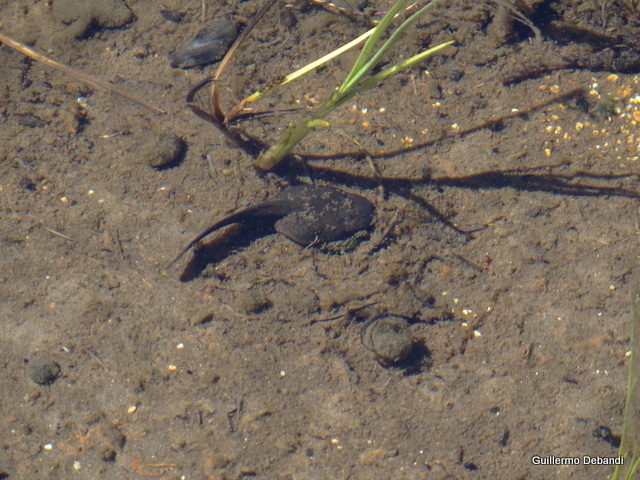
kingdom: Animalia
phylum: Chordata
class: Amphibia
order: Anura
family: Alsodidae
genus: Alsodes
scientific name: Alsodes pehuenche
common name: Pehuenche spiny-chest frog
